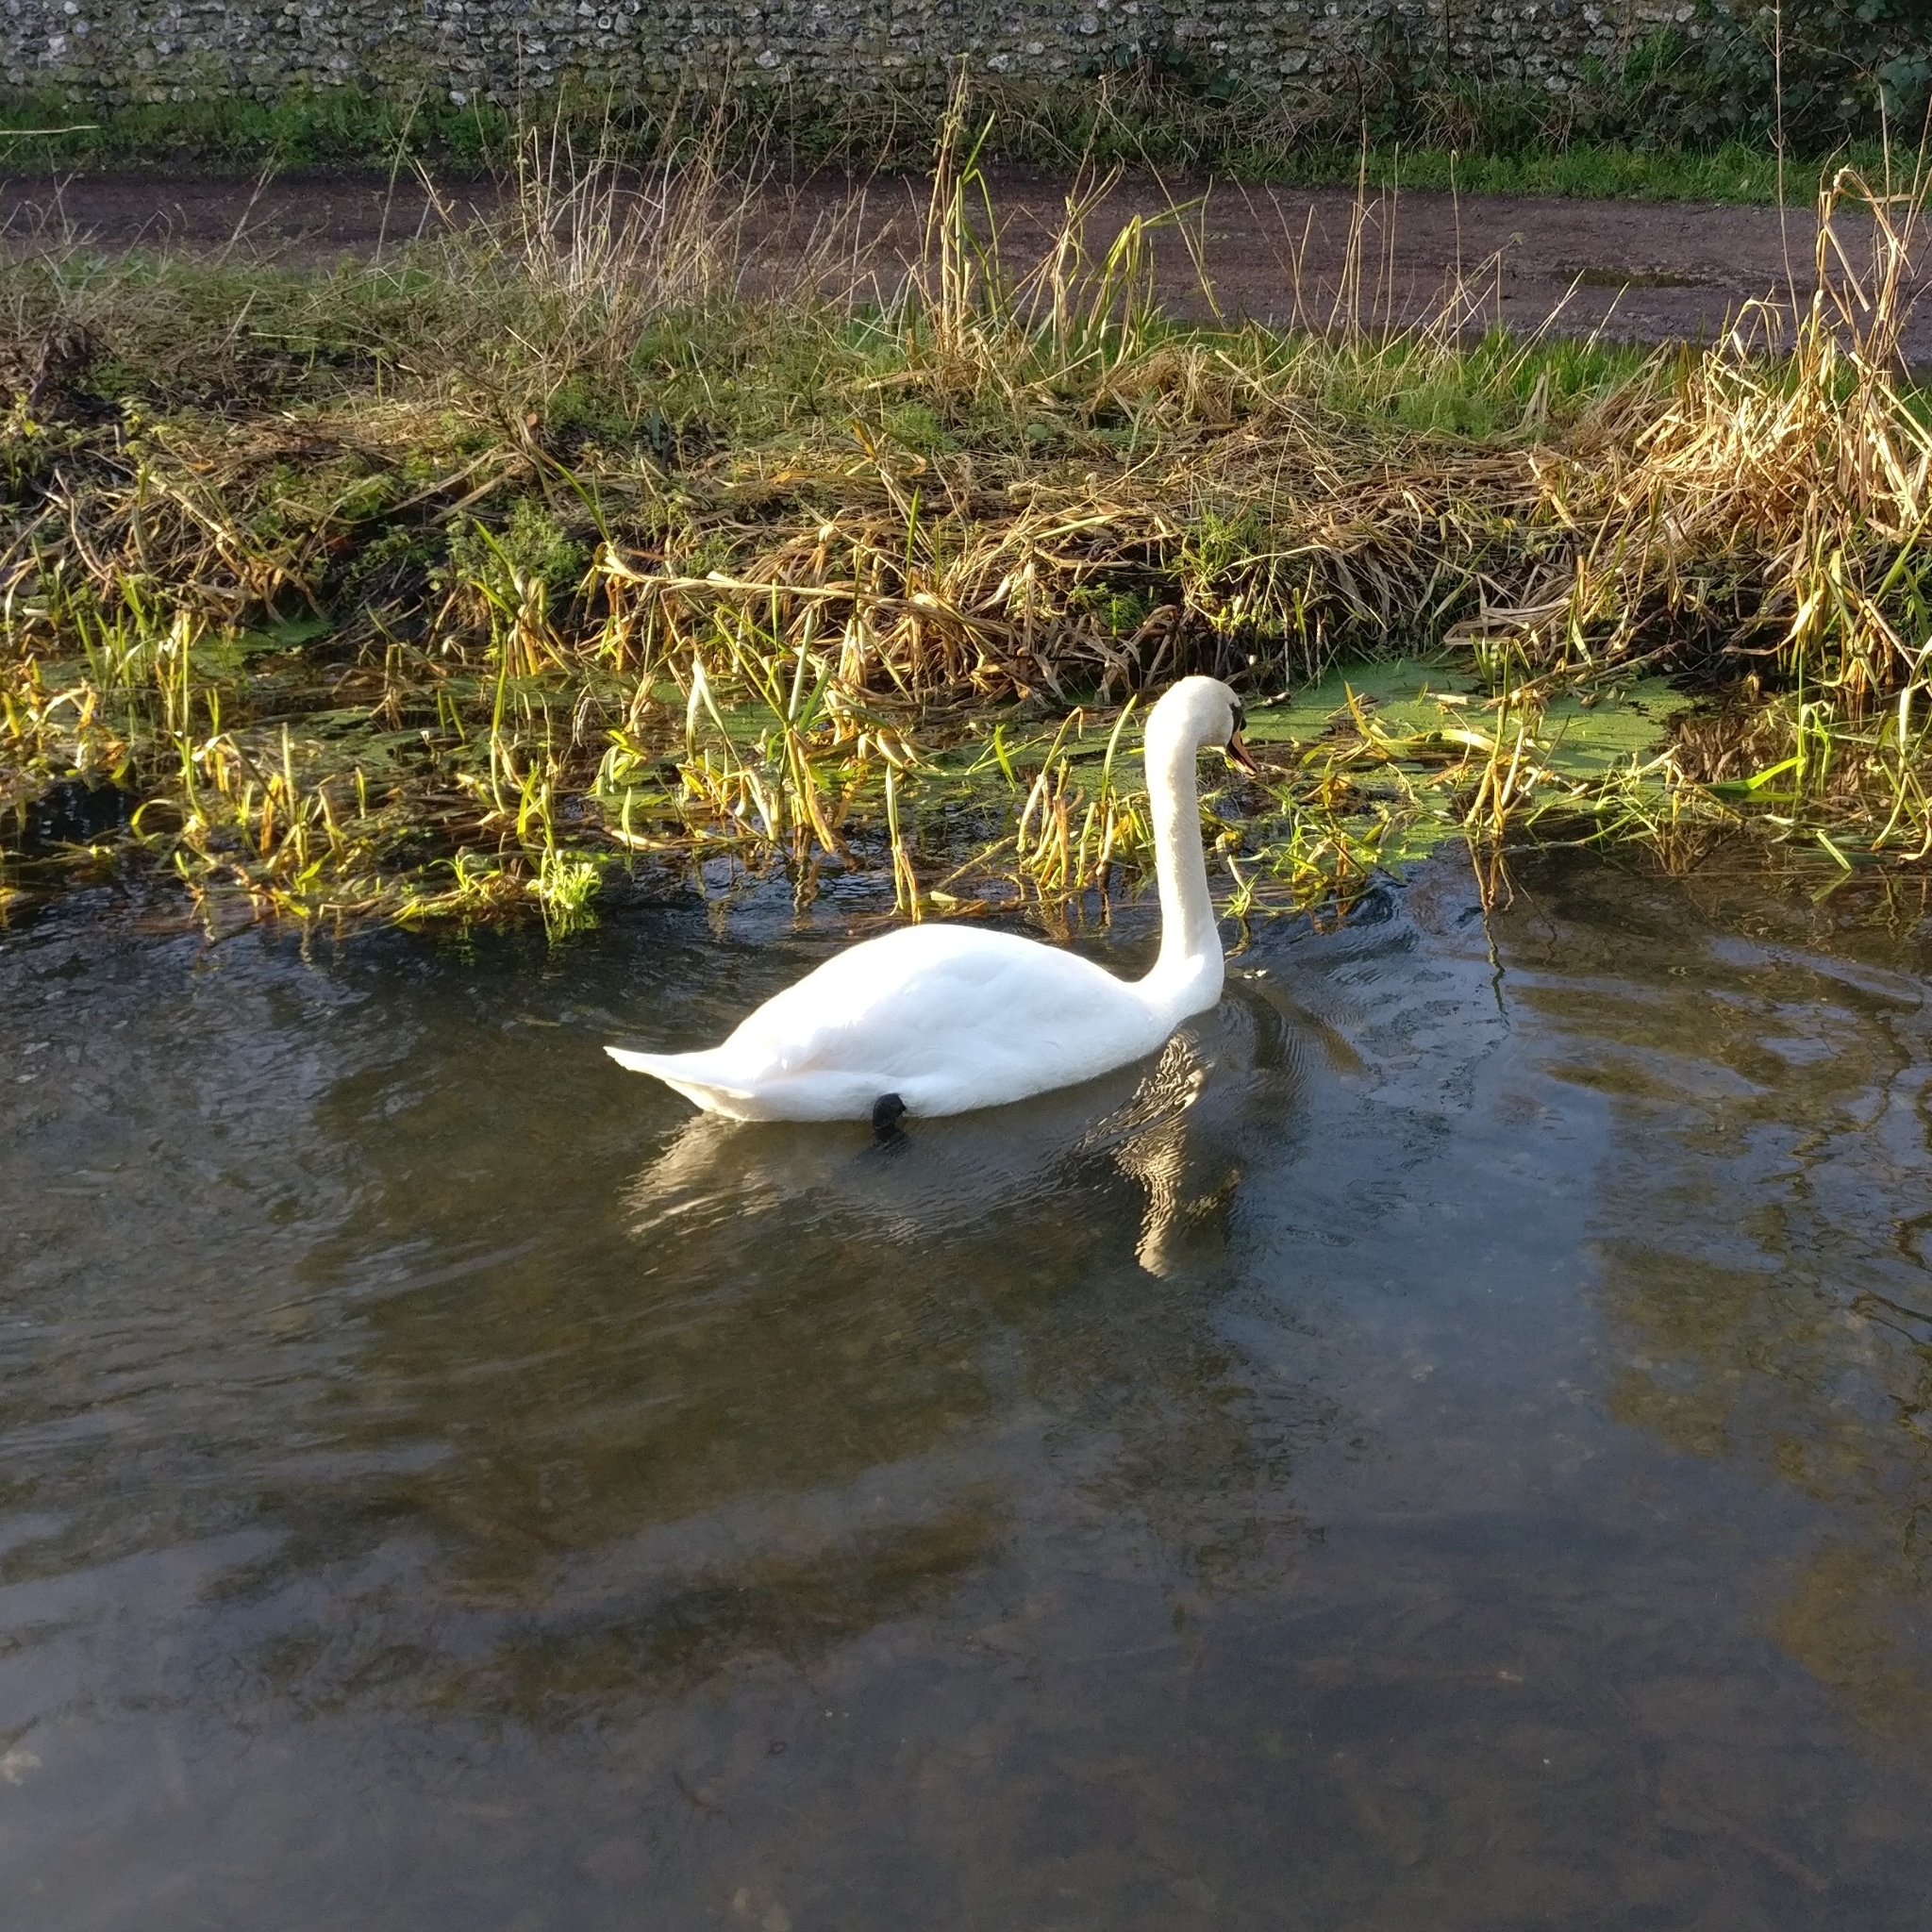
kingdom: Animalia
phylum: Chordata
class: Aves
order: Anseriformes
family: Anatidae
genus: Cygnus
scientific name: Cygnus olor
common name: Mute swan
